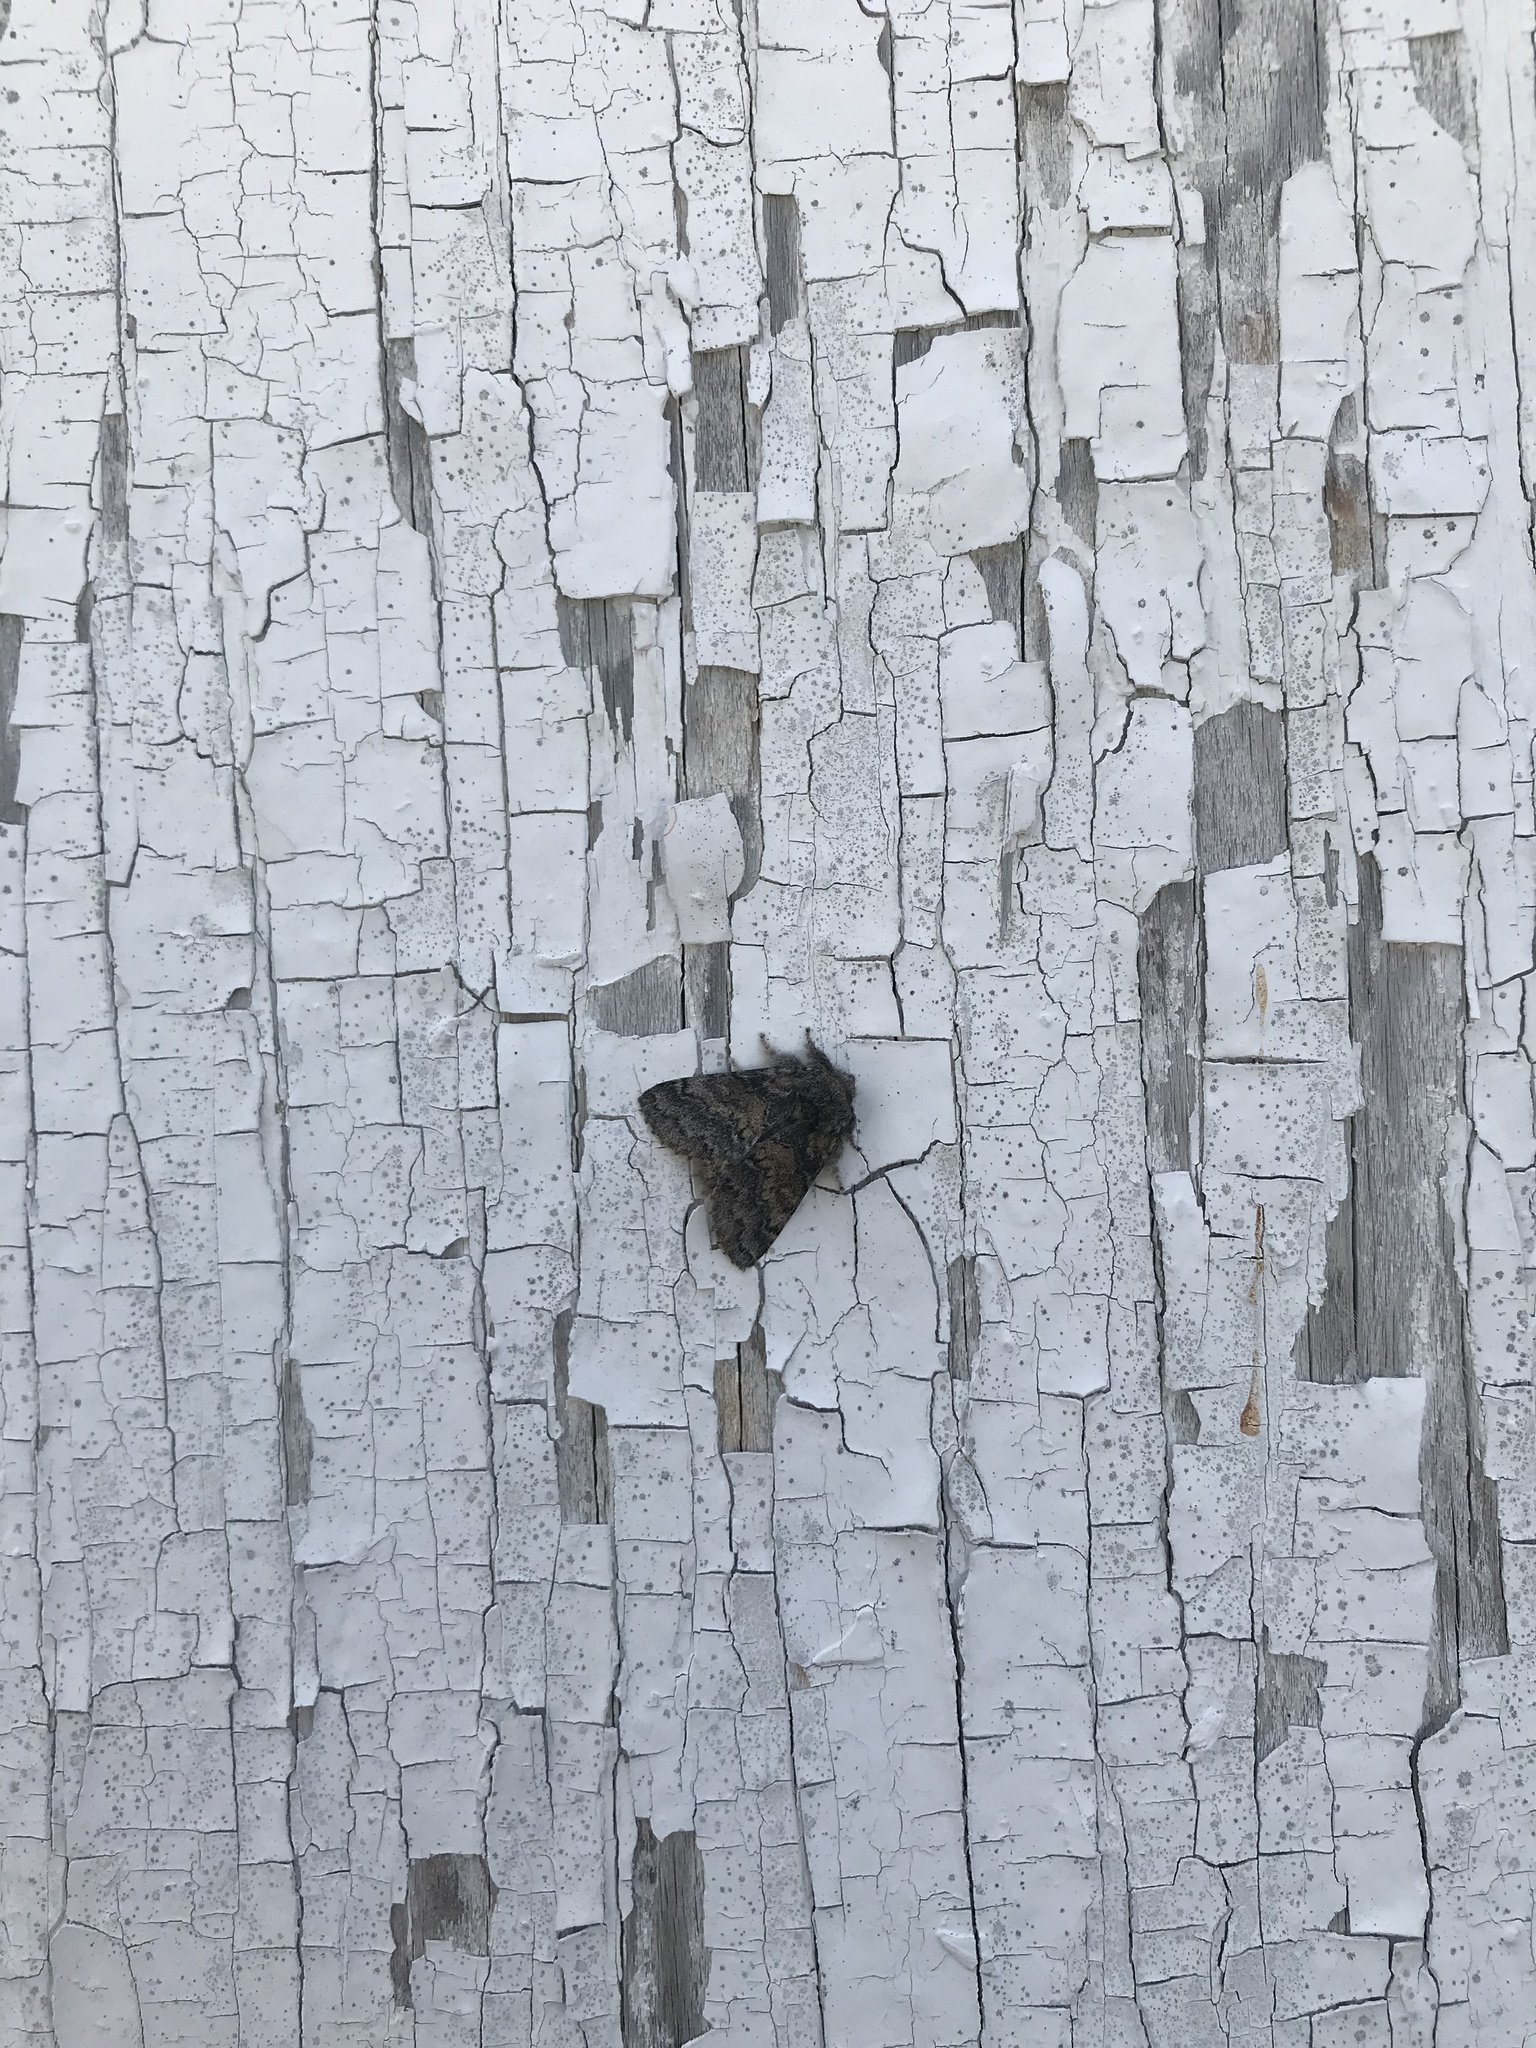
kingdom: Animalia
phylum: Arthropoda
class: Insecta
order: Lepidoptera
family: Notodontidae
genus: Gluphisia
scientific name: Gluphisia septentrionis
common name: Common gluphisia
